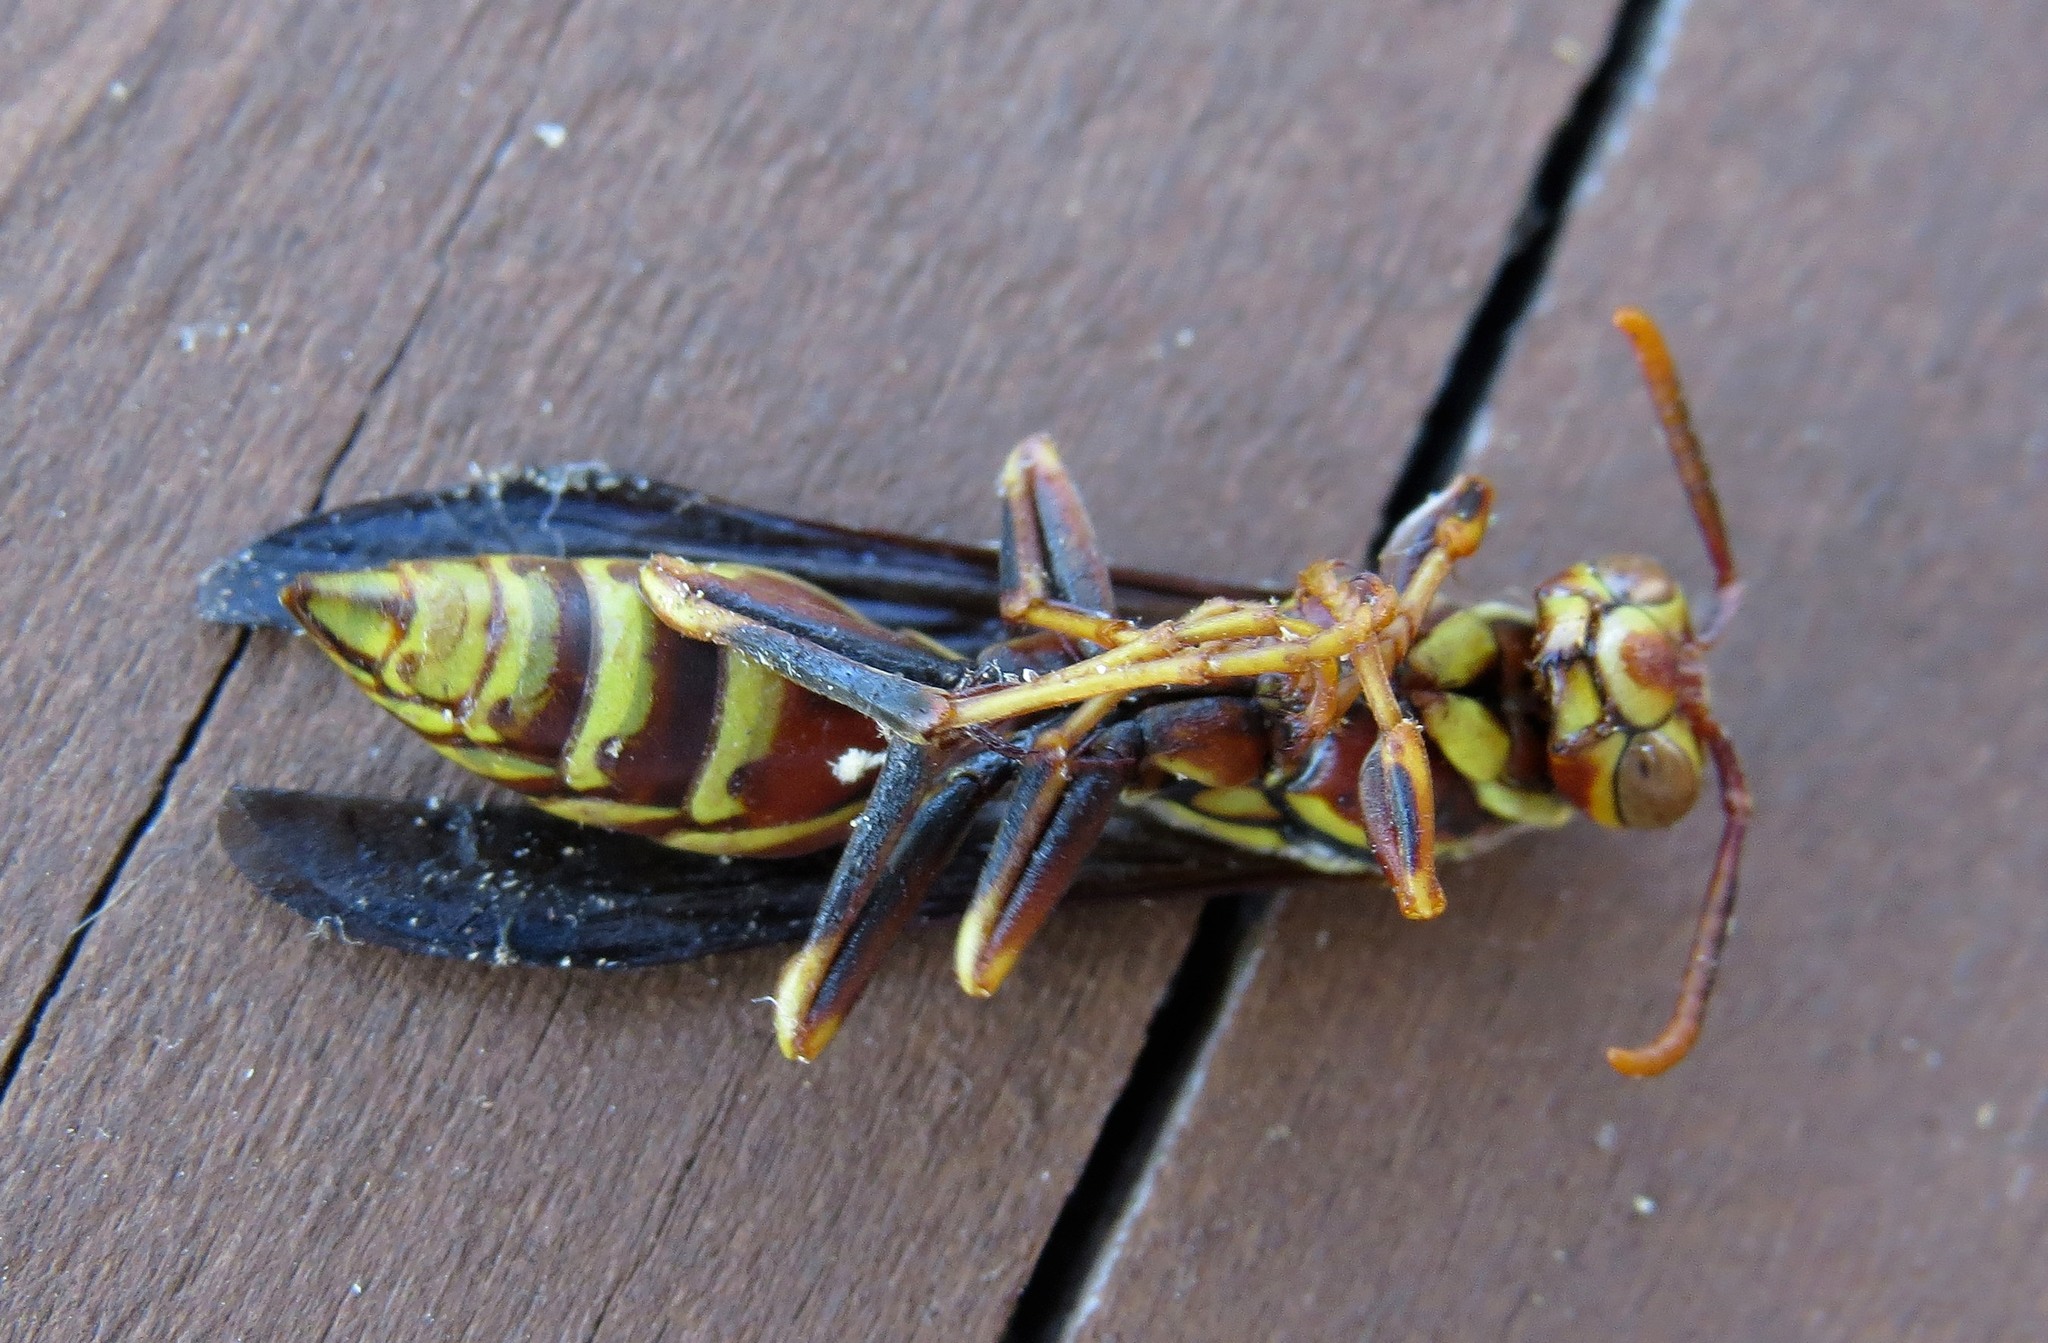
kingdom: Animalia
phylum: Arthropoda
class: Insecta
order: Hymenoptera
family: Eumenidae
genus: Polistes
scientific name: Polistes exclamans
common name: Paper wasp
